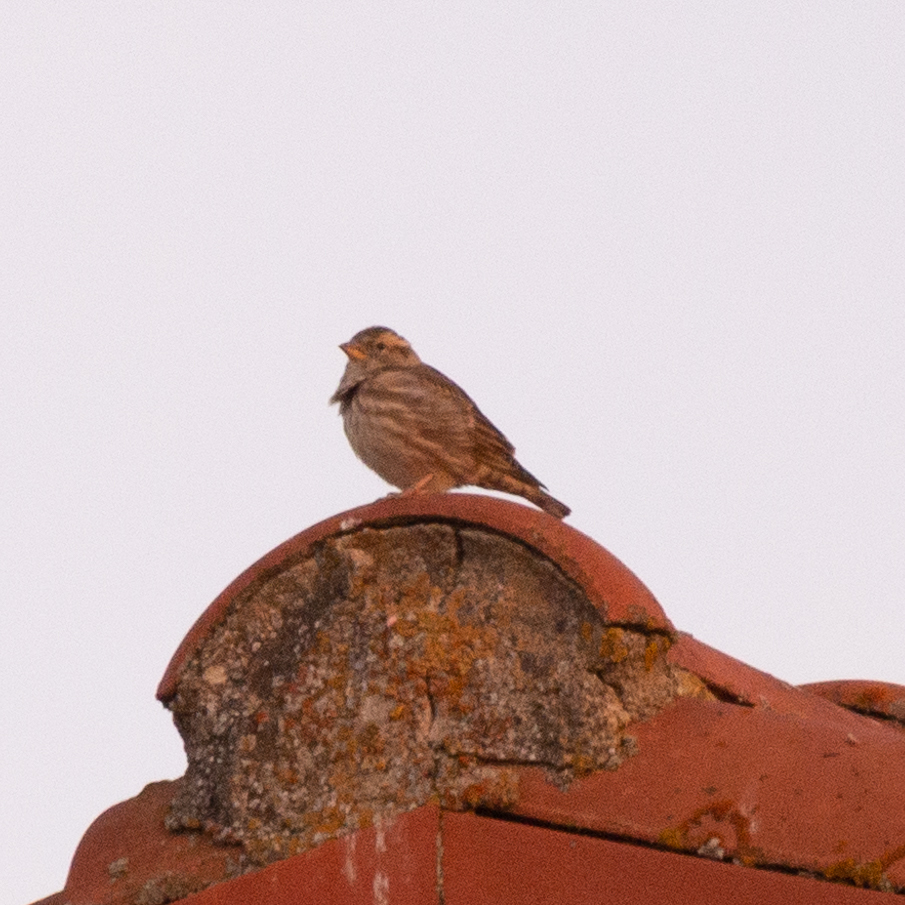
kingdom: Animalia
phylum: Chordata
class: Aves
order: Passeriformes
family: Passeridae
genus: Petronia
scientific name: Petronia petronia
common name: Rock sparrow
